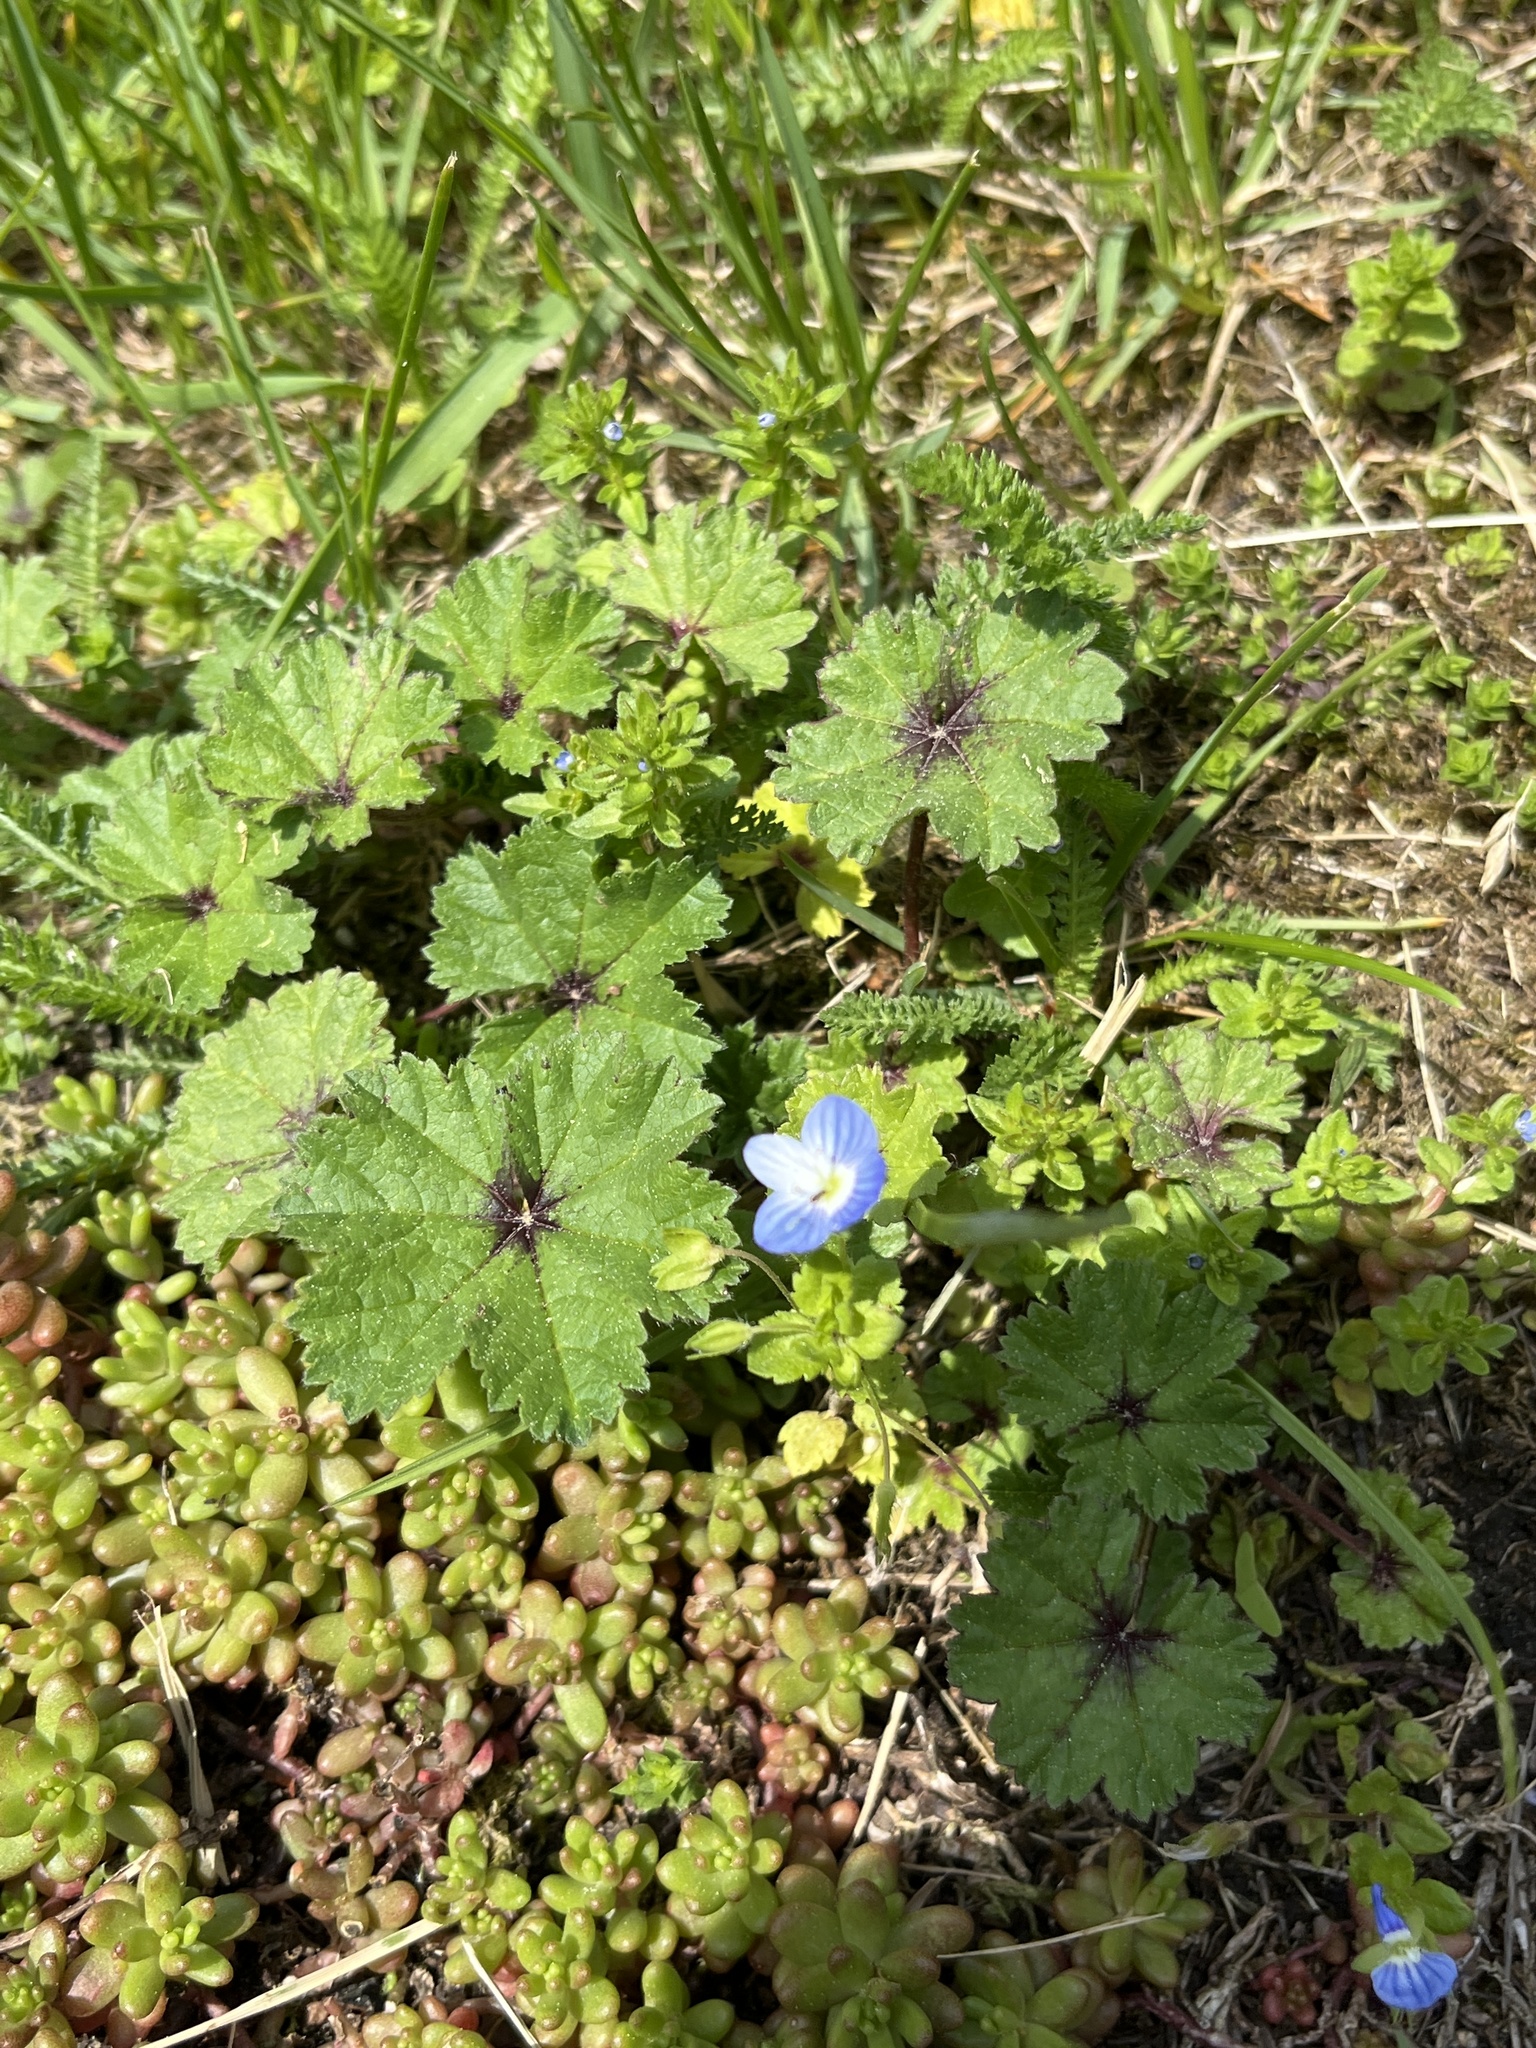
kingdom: Plantae
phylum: Tracheophyta
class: Magnoliopsida
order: Lamiales
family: Plantaginaceae
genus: Veronica
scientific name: Veronica persica
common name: Common field-speedwell
